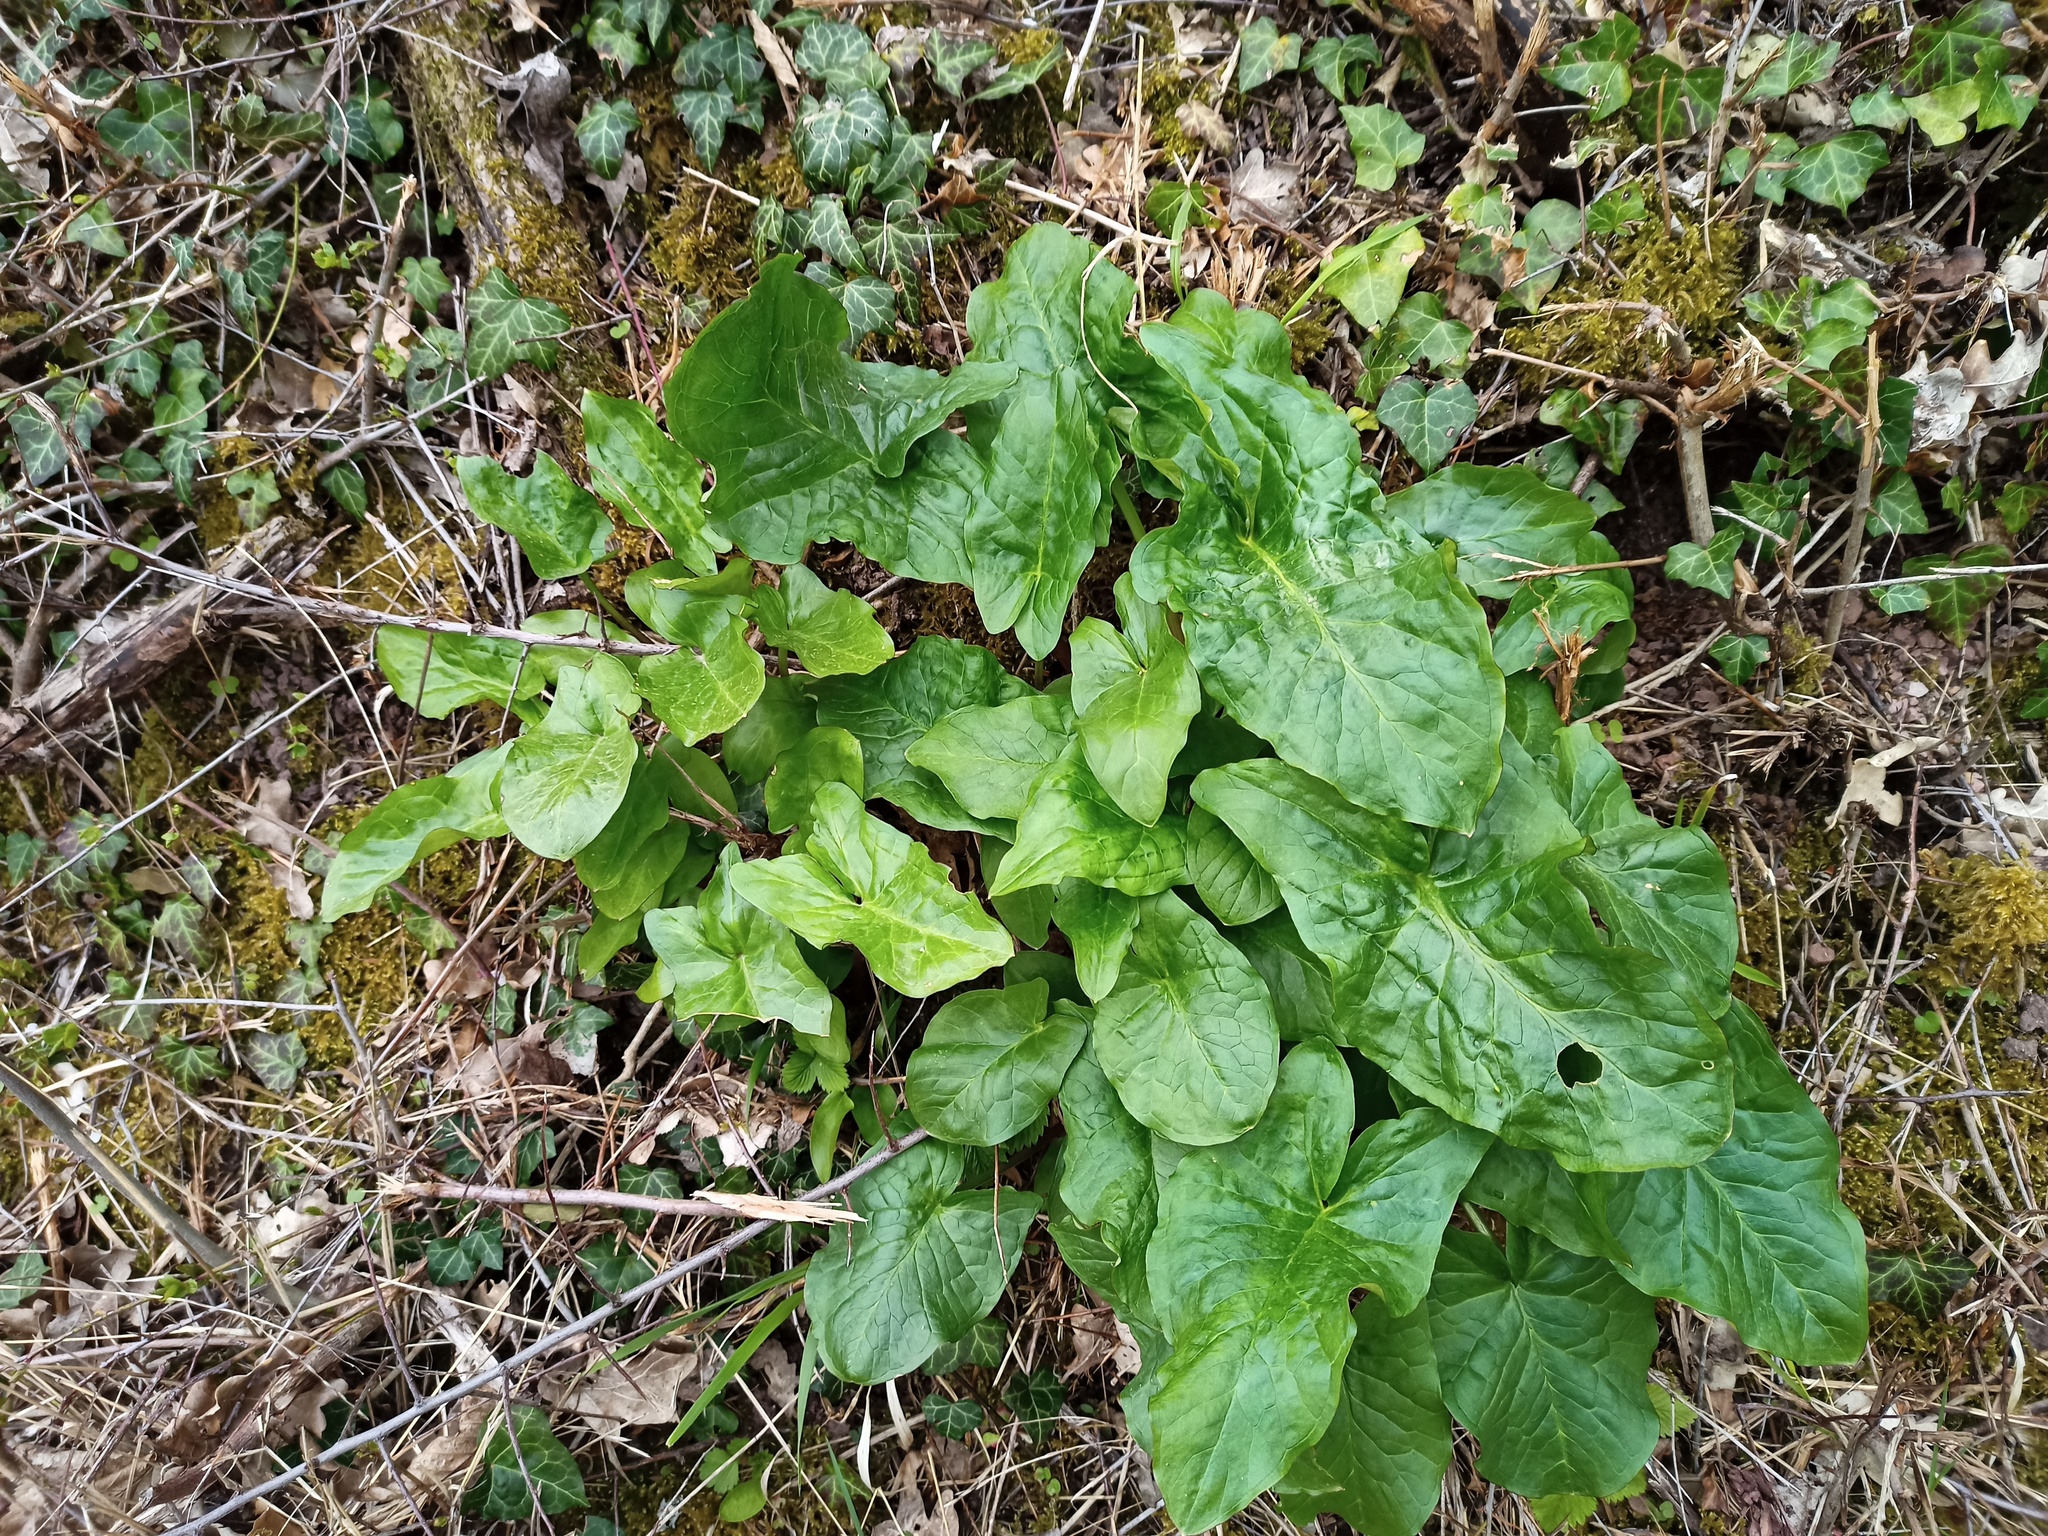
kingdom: Plantae
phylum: Tracheophyta
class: Liliopsida
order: Alismatales
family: Araceae
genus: Arum
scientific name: Arum maculatum
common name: Lords-and-ladies
